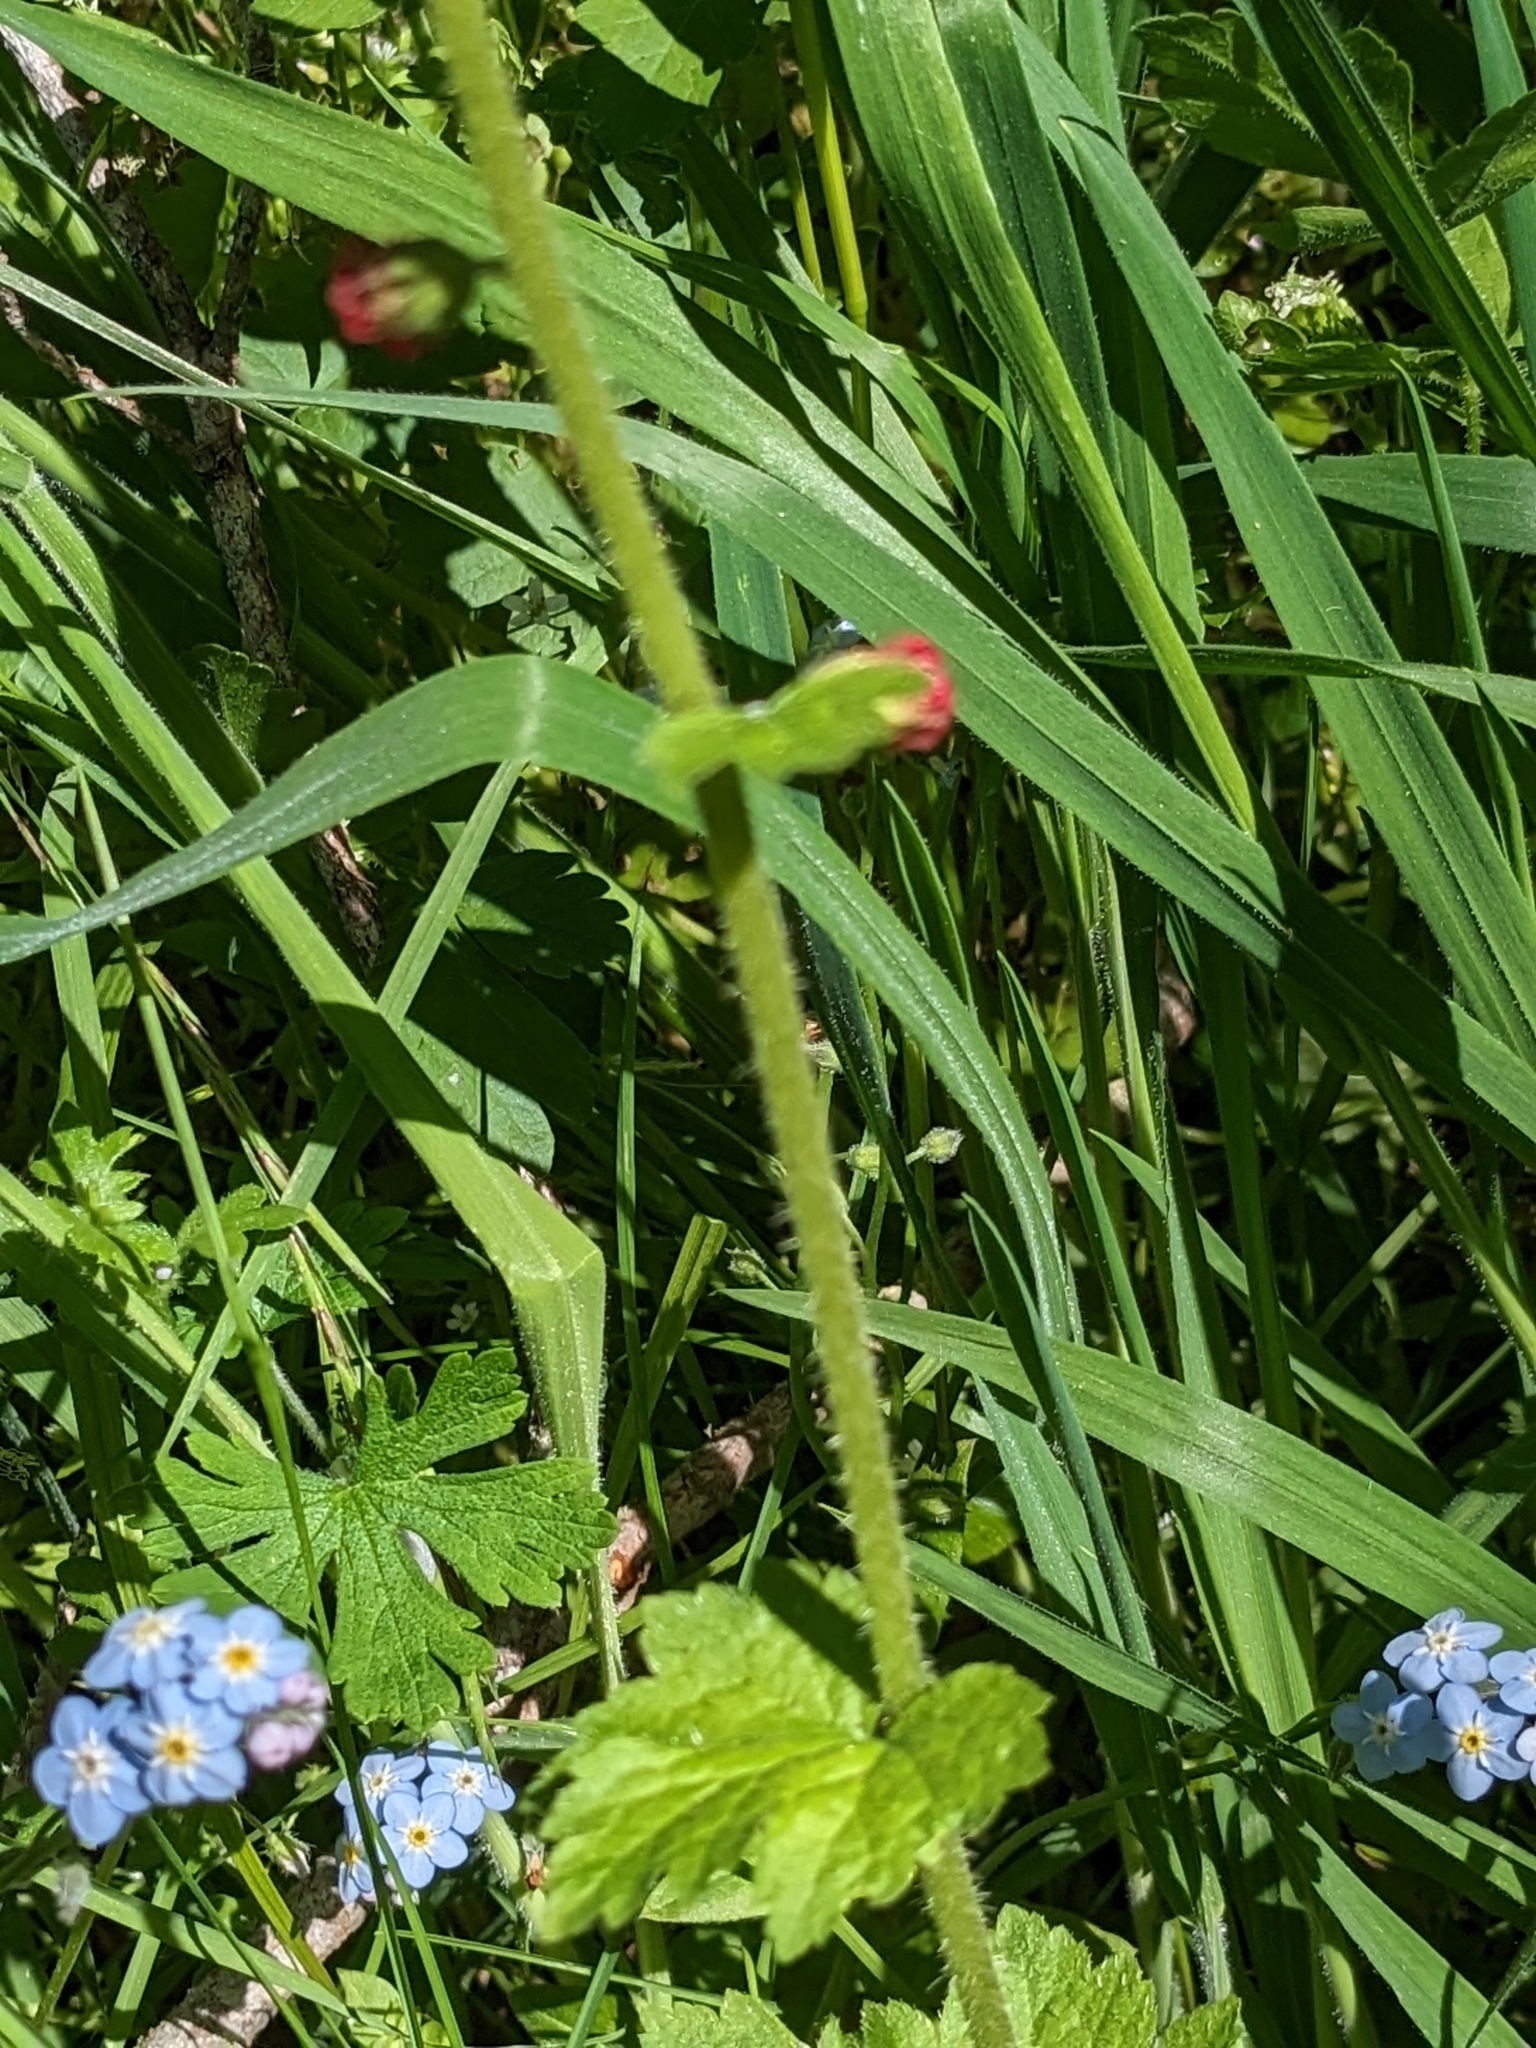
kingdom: Plantae
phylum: Tracheophyta
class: Magnoliopsida
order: Saxifragales
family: Saxifragaceae
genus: Tellima
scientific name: Tellima grandiflora
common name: Fringecups
